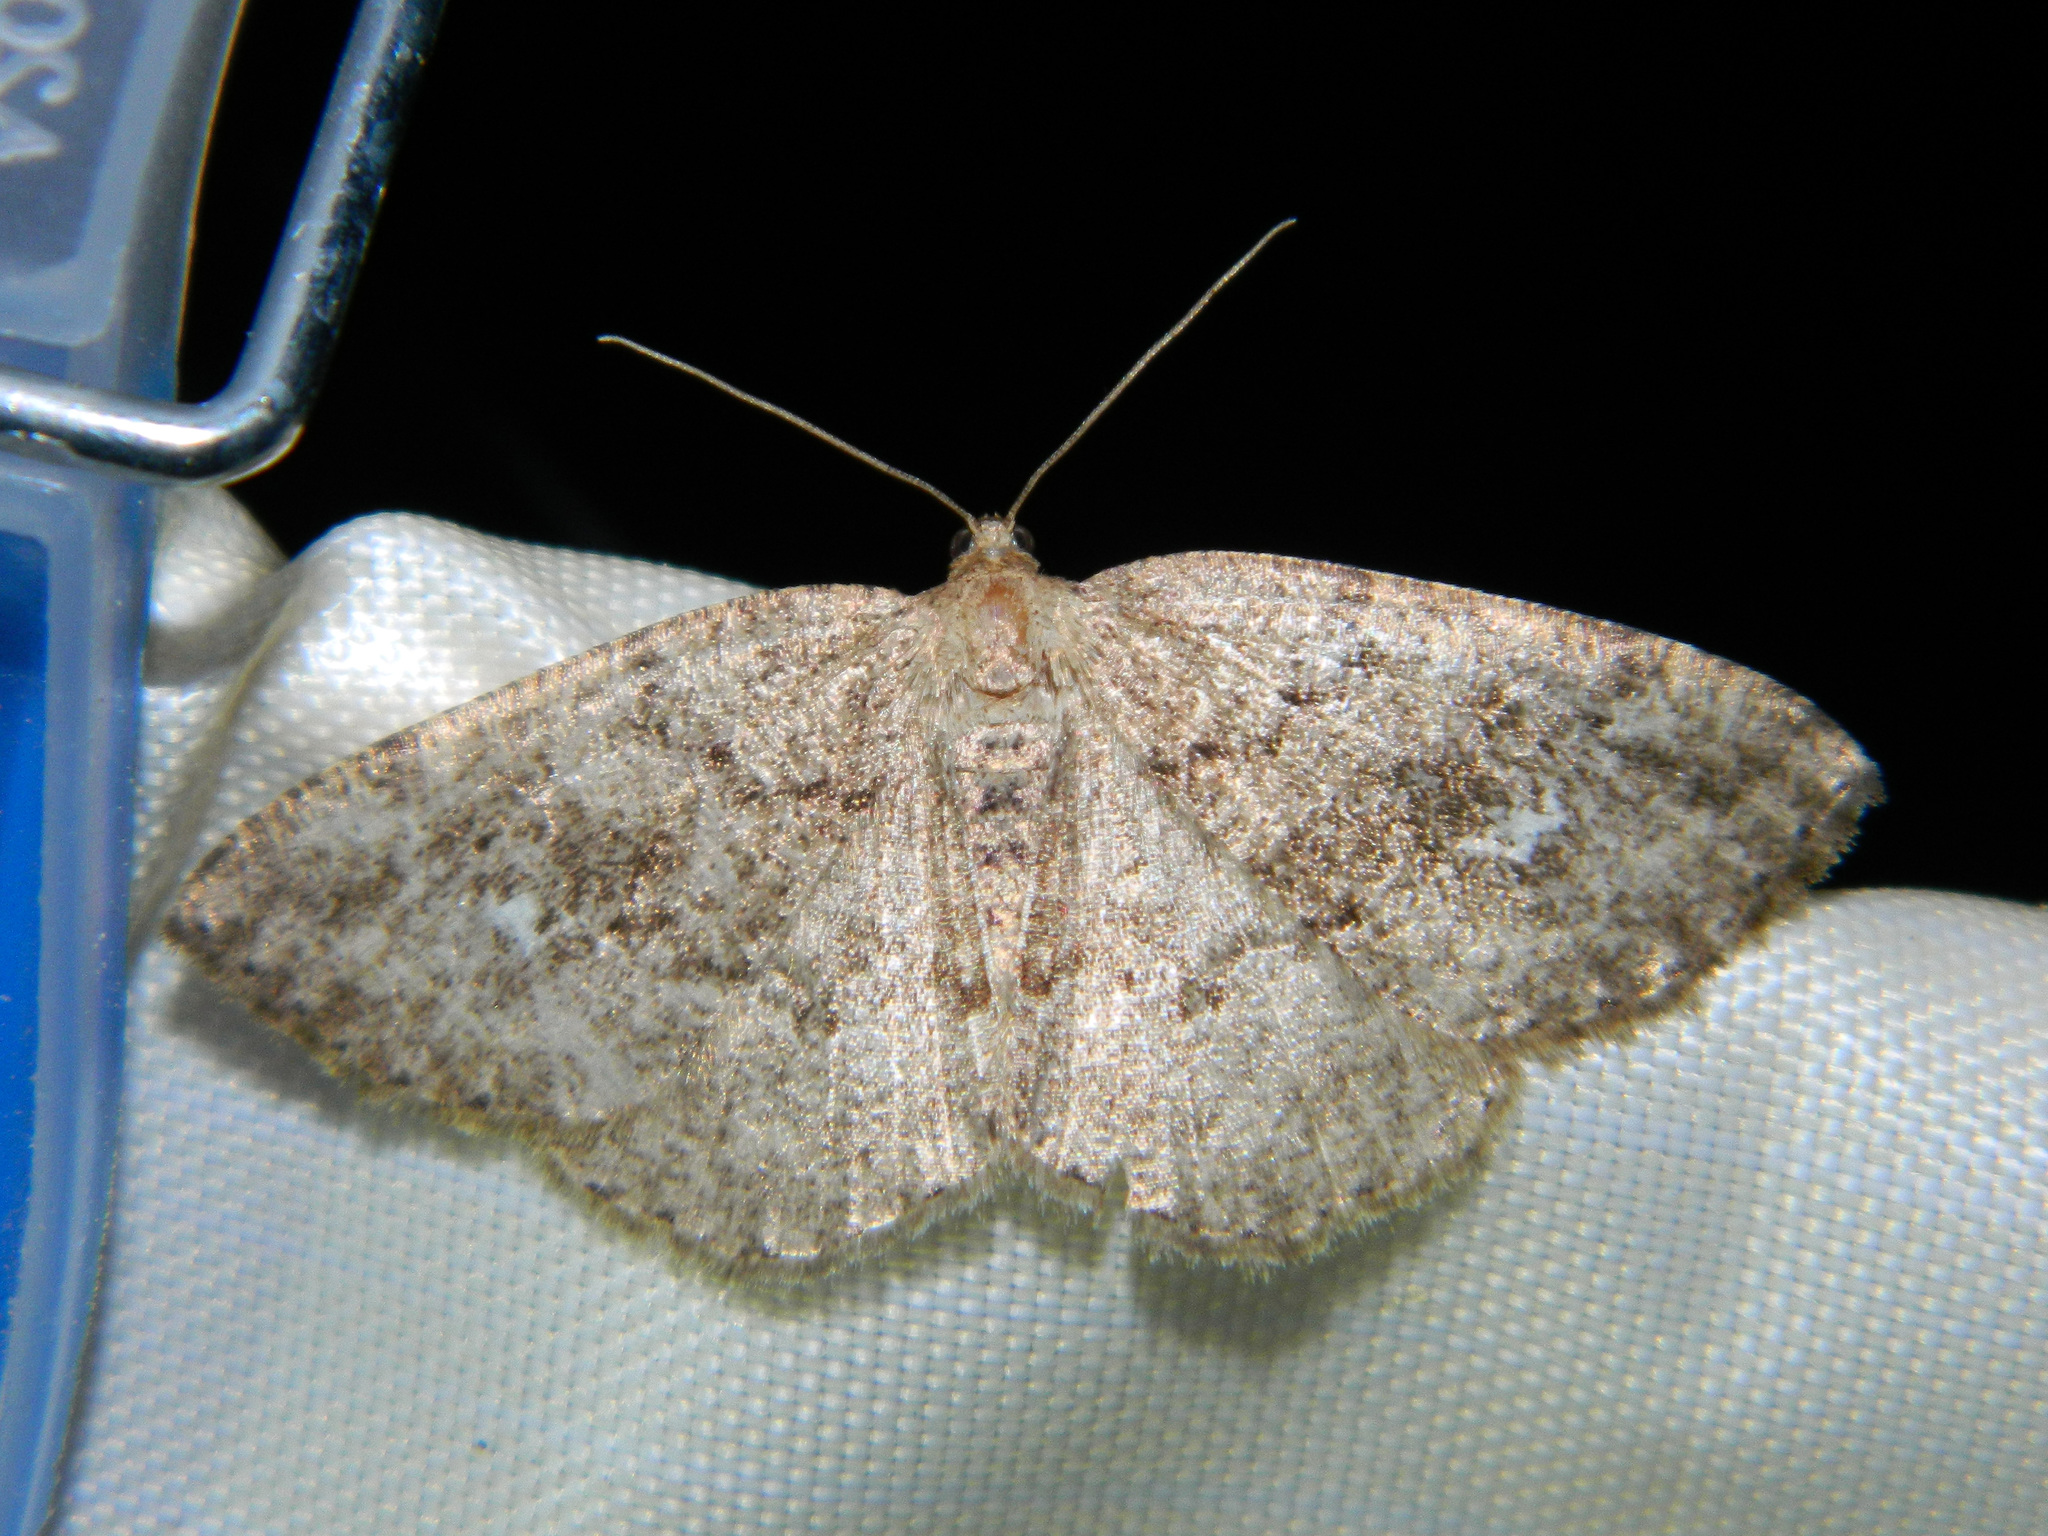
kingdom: Animalia
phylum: Arthropoda
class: Insecta
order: Lepidoptera
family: Geometridae
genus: Homochlodes
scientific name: Homochlodes fritillaria
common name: Pale homochlodes
